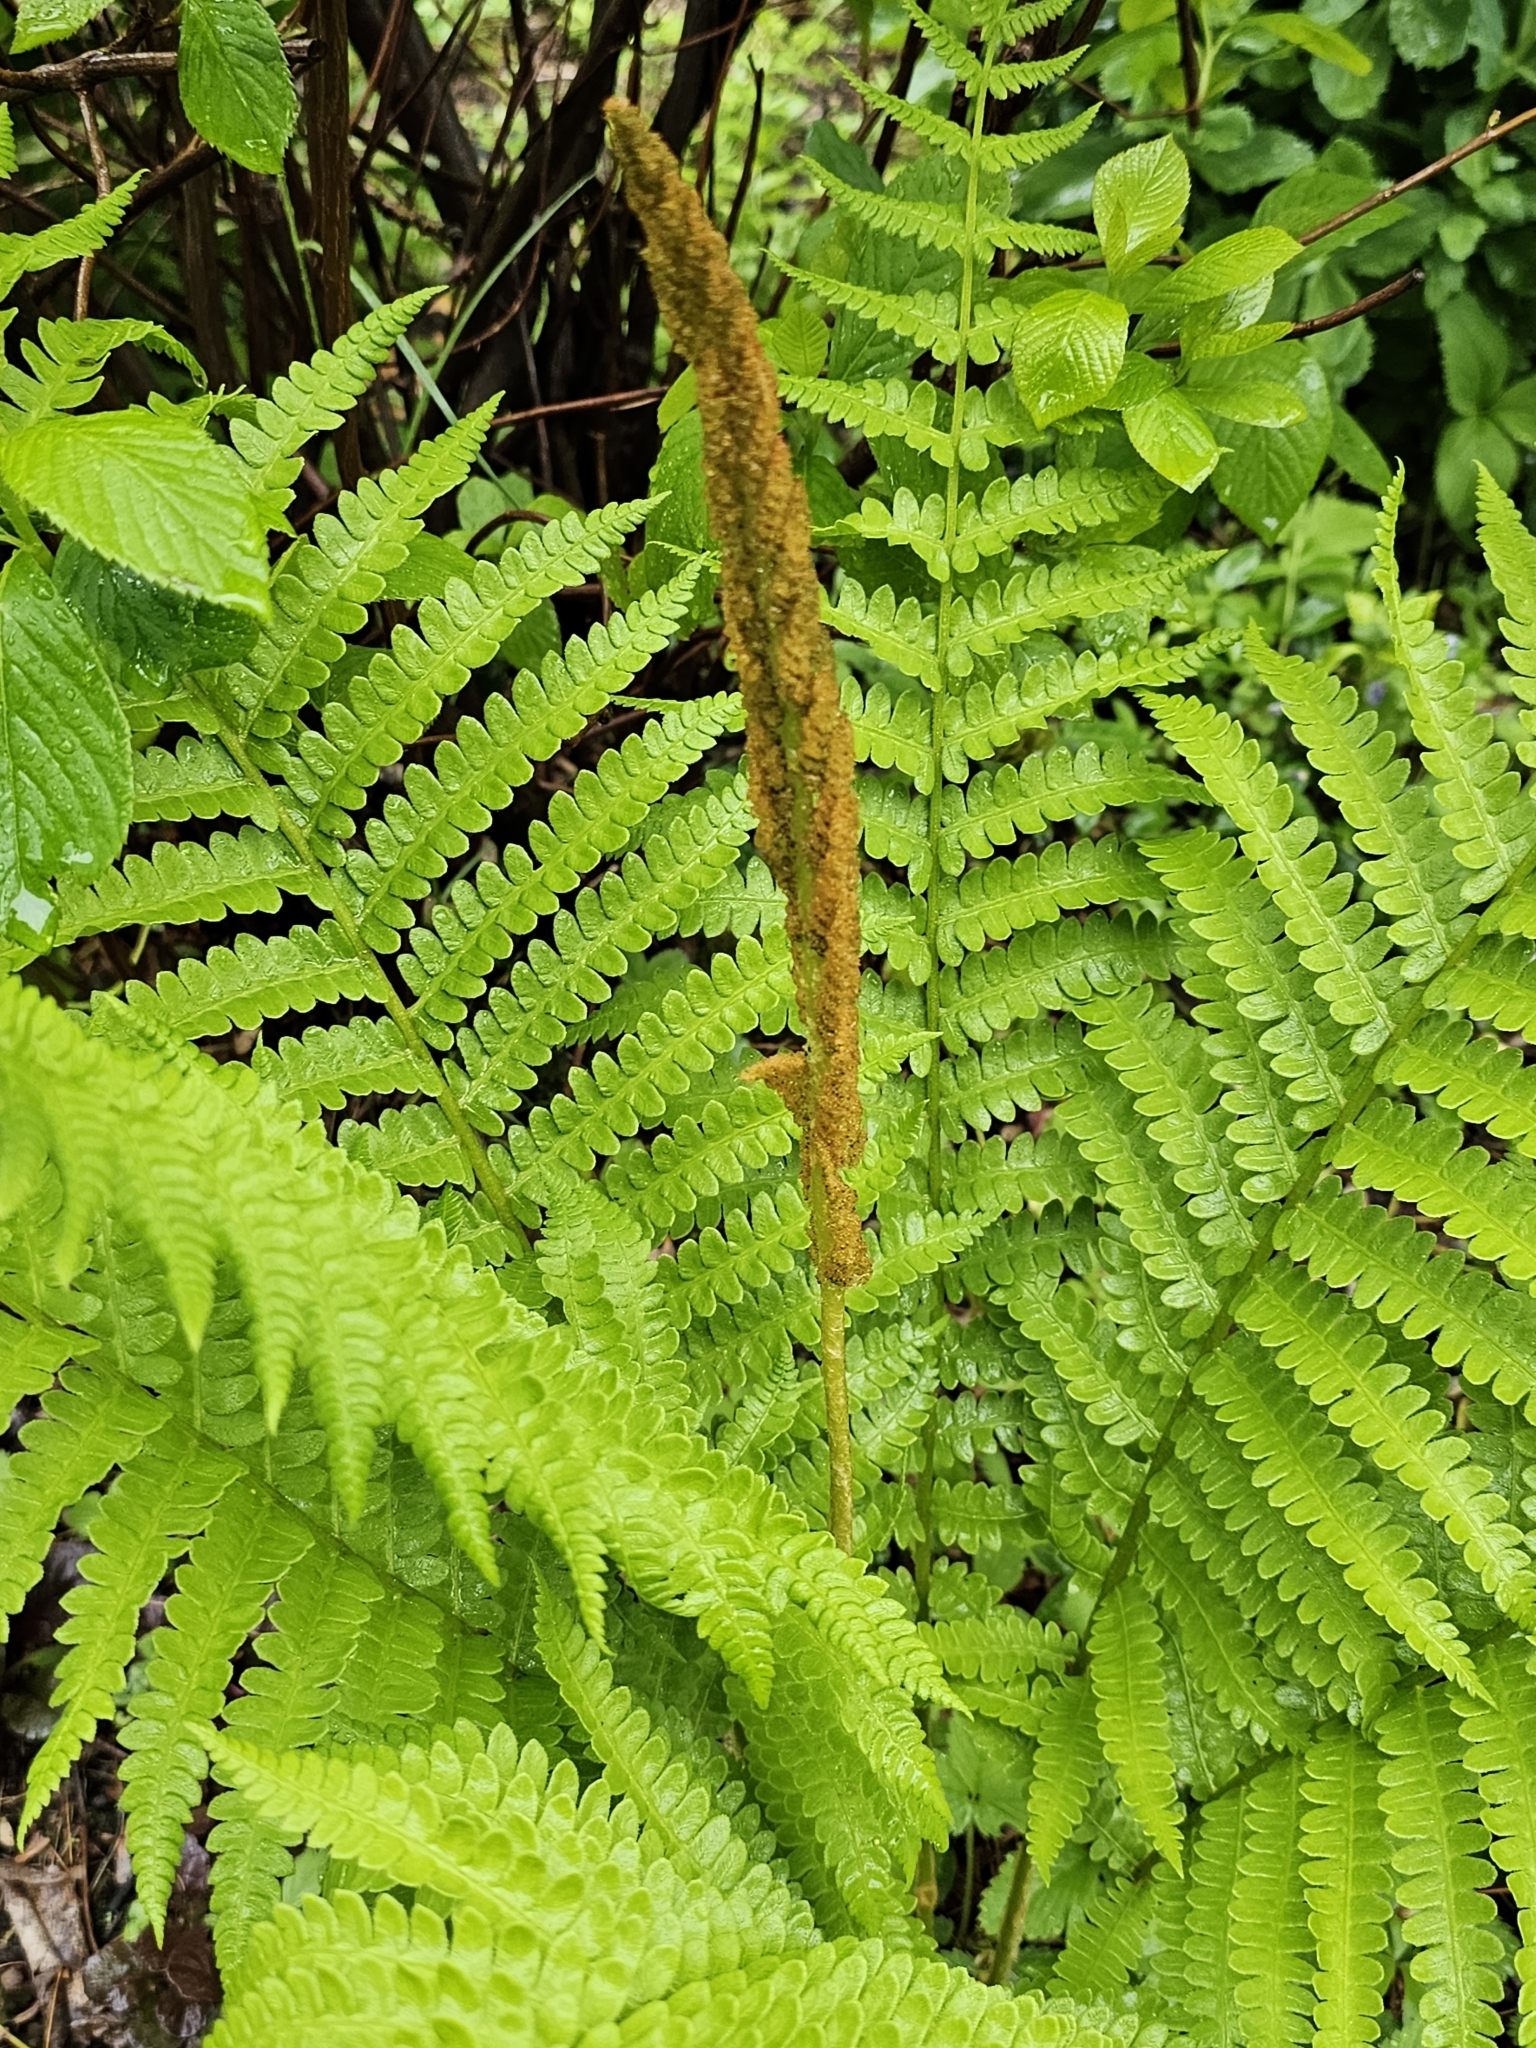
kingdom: Plantae
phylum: Tracheophyta
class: Polypodiopsida
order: Osmundales
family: Osmundaceae
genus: Osmundastrum
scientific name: Osmundastrum cinnamomeum
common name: Cinnamon fern
